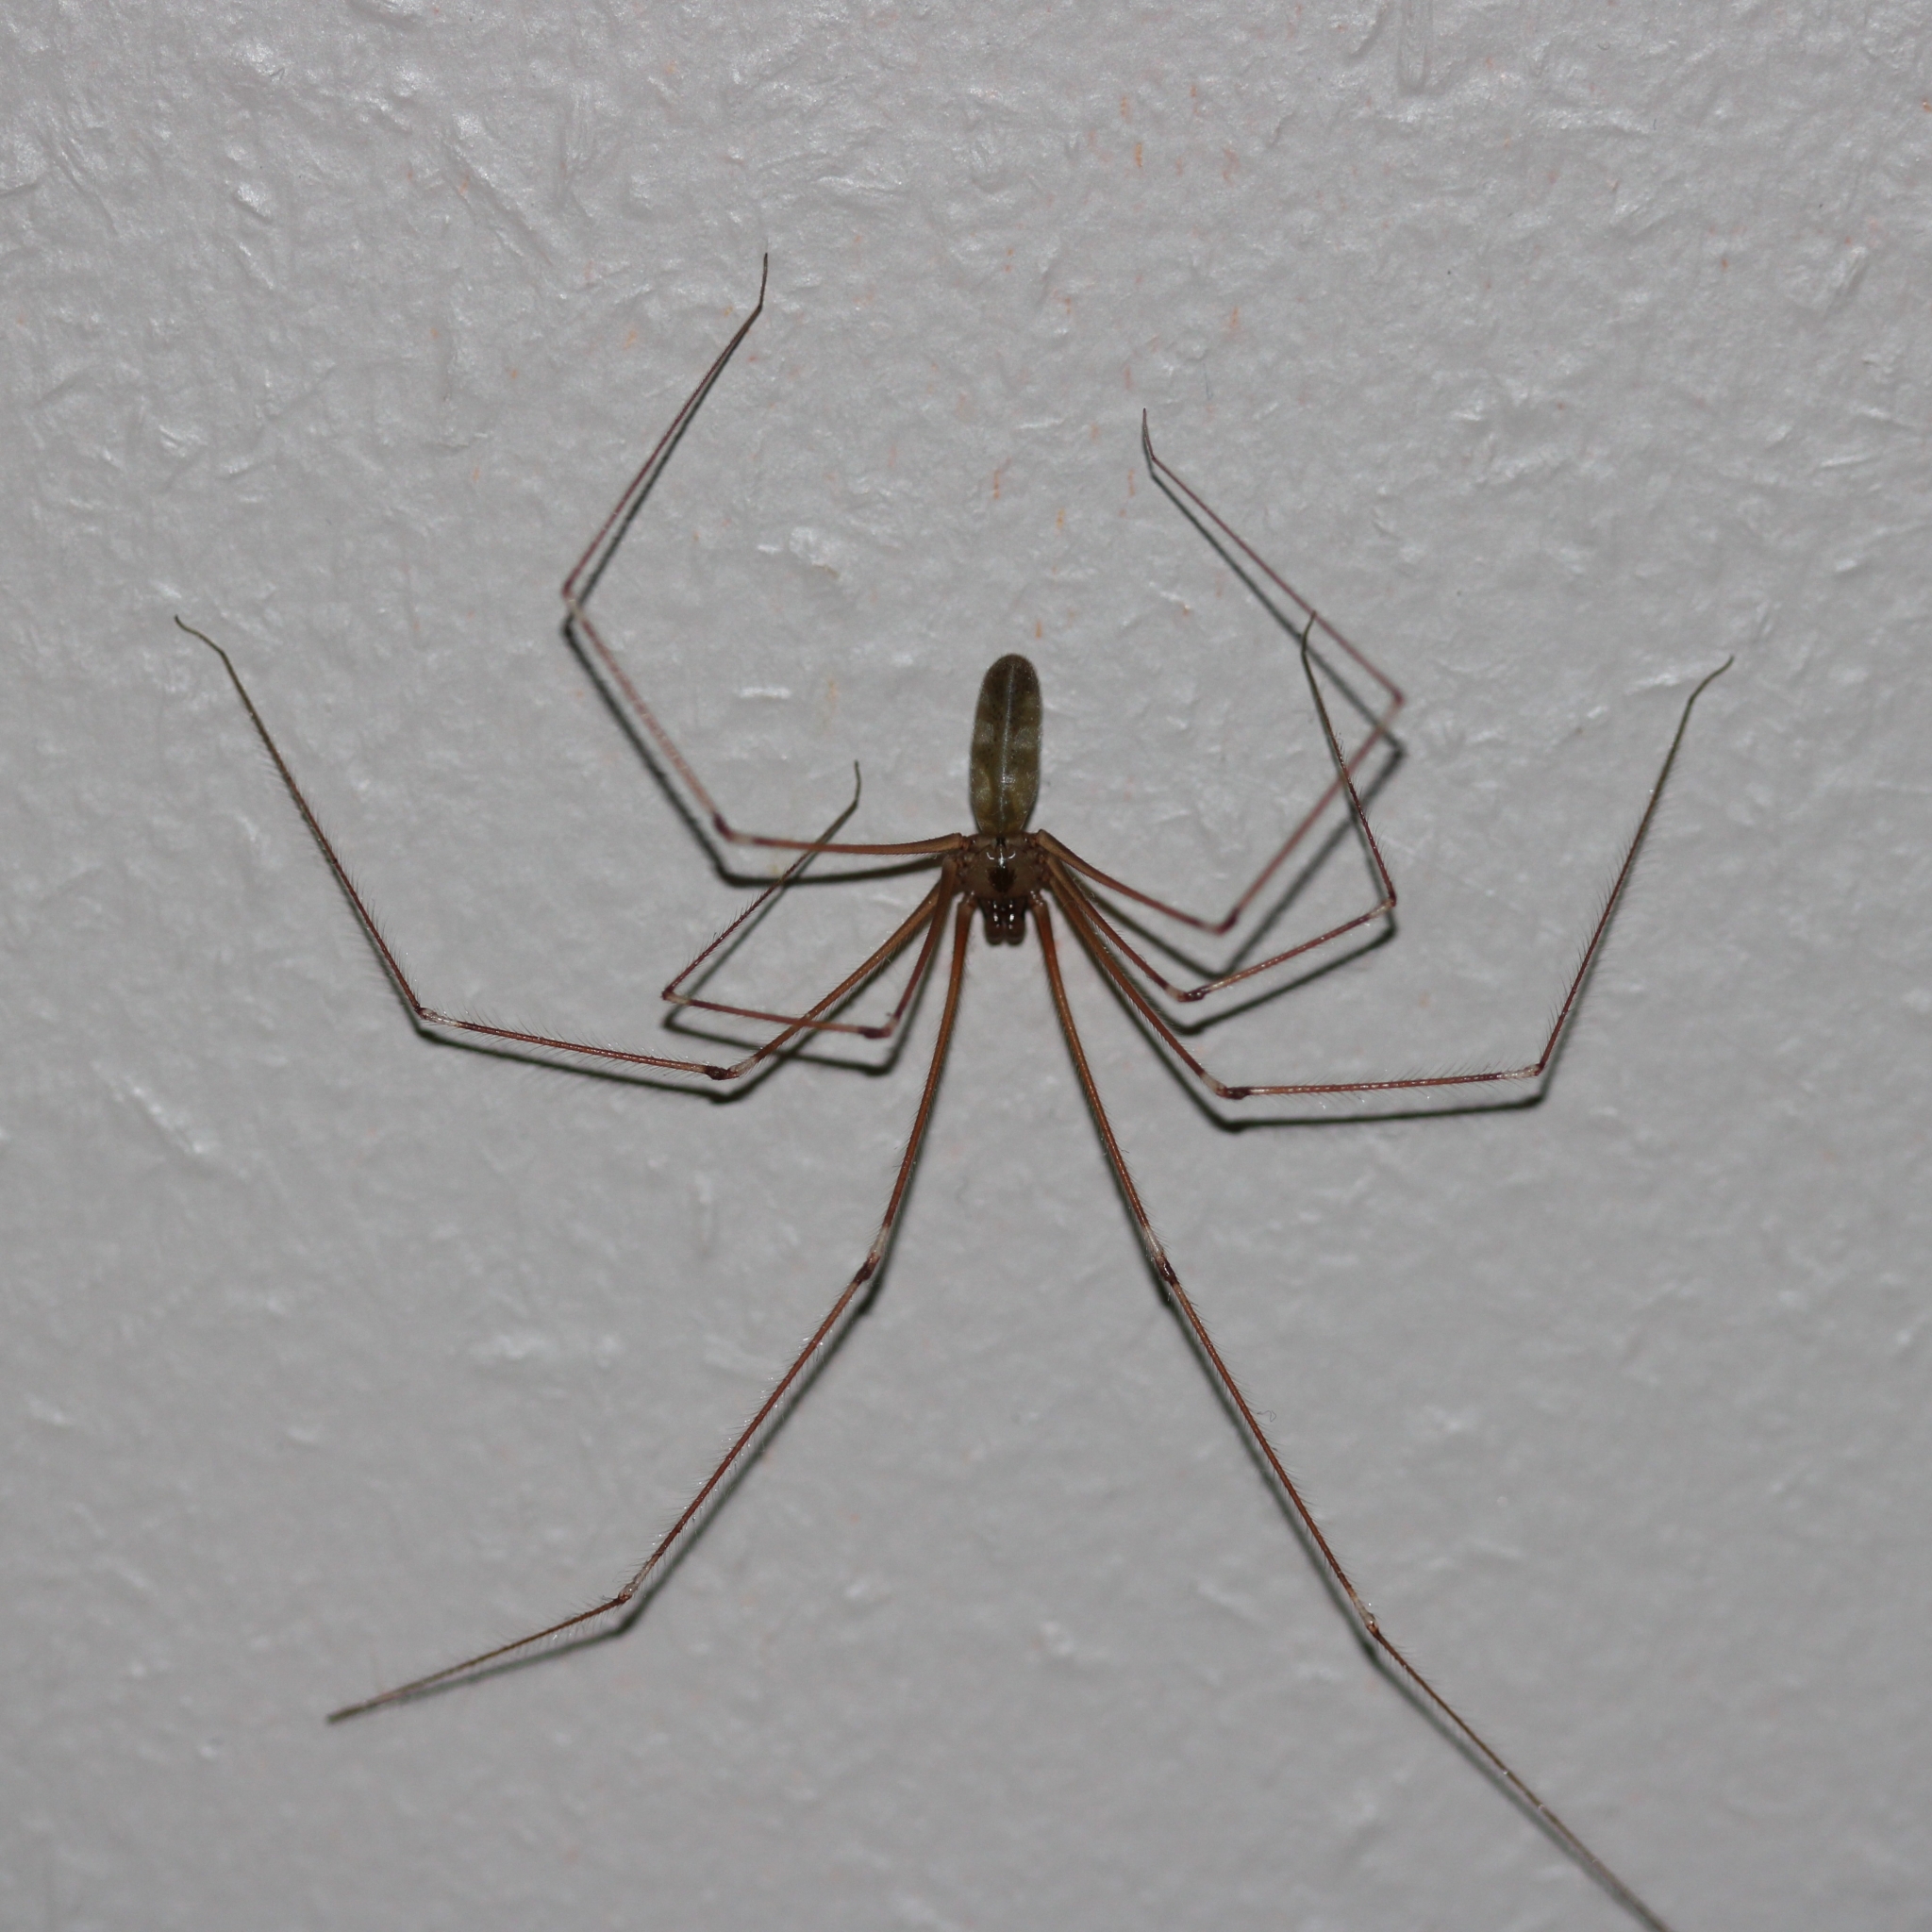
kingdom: Animalia
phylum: Arthropoda
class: Arachnida
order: Araneae
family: Pholcidae
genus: Pholcus
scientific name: Pholcus phalangioides
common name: Longbodied cellar spider
